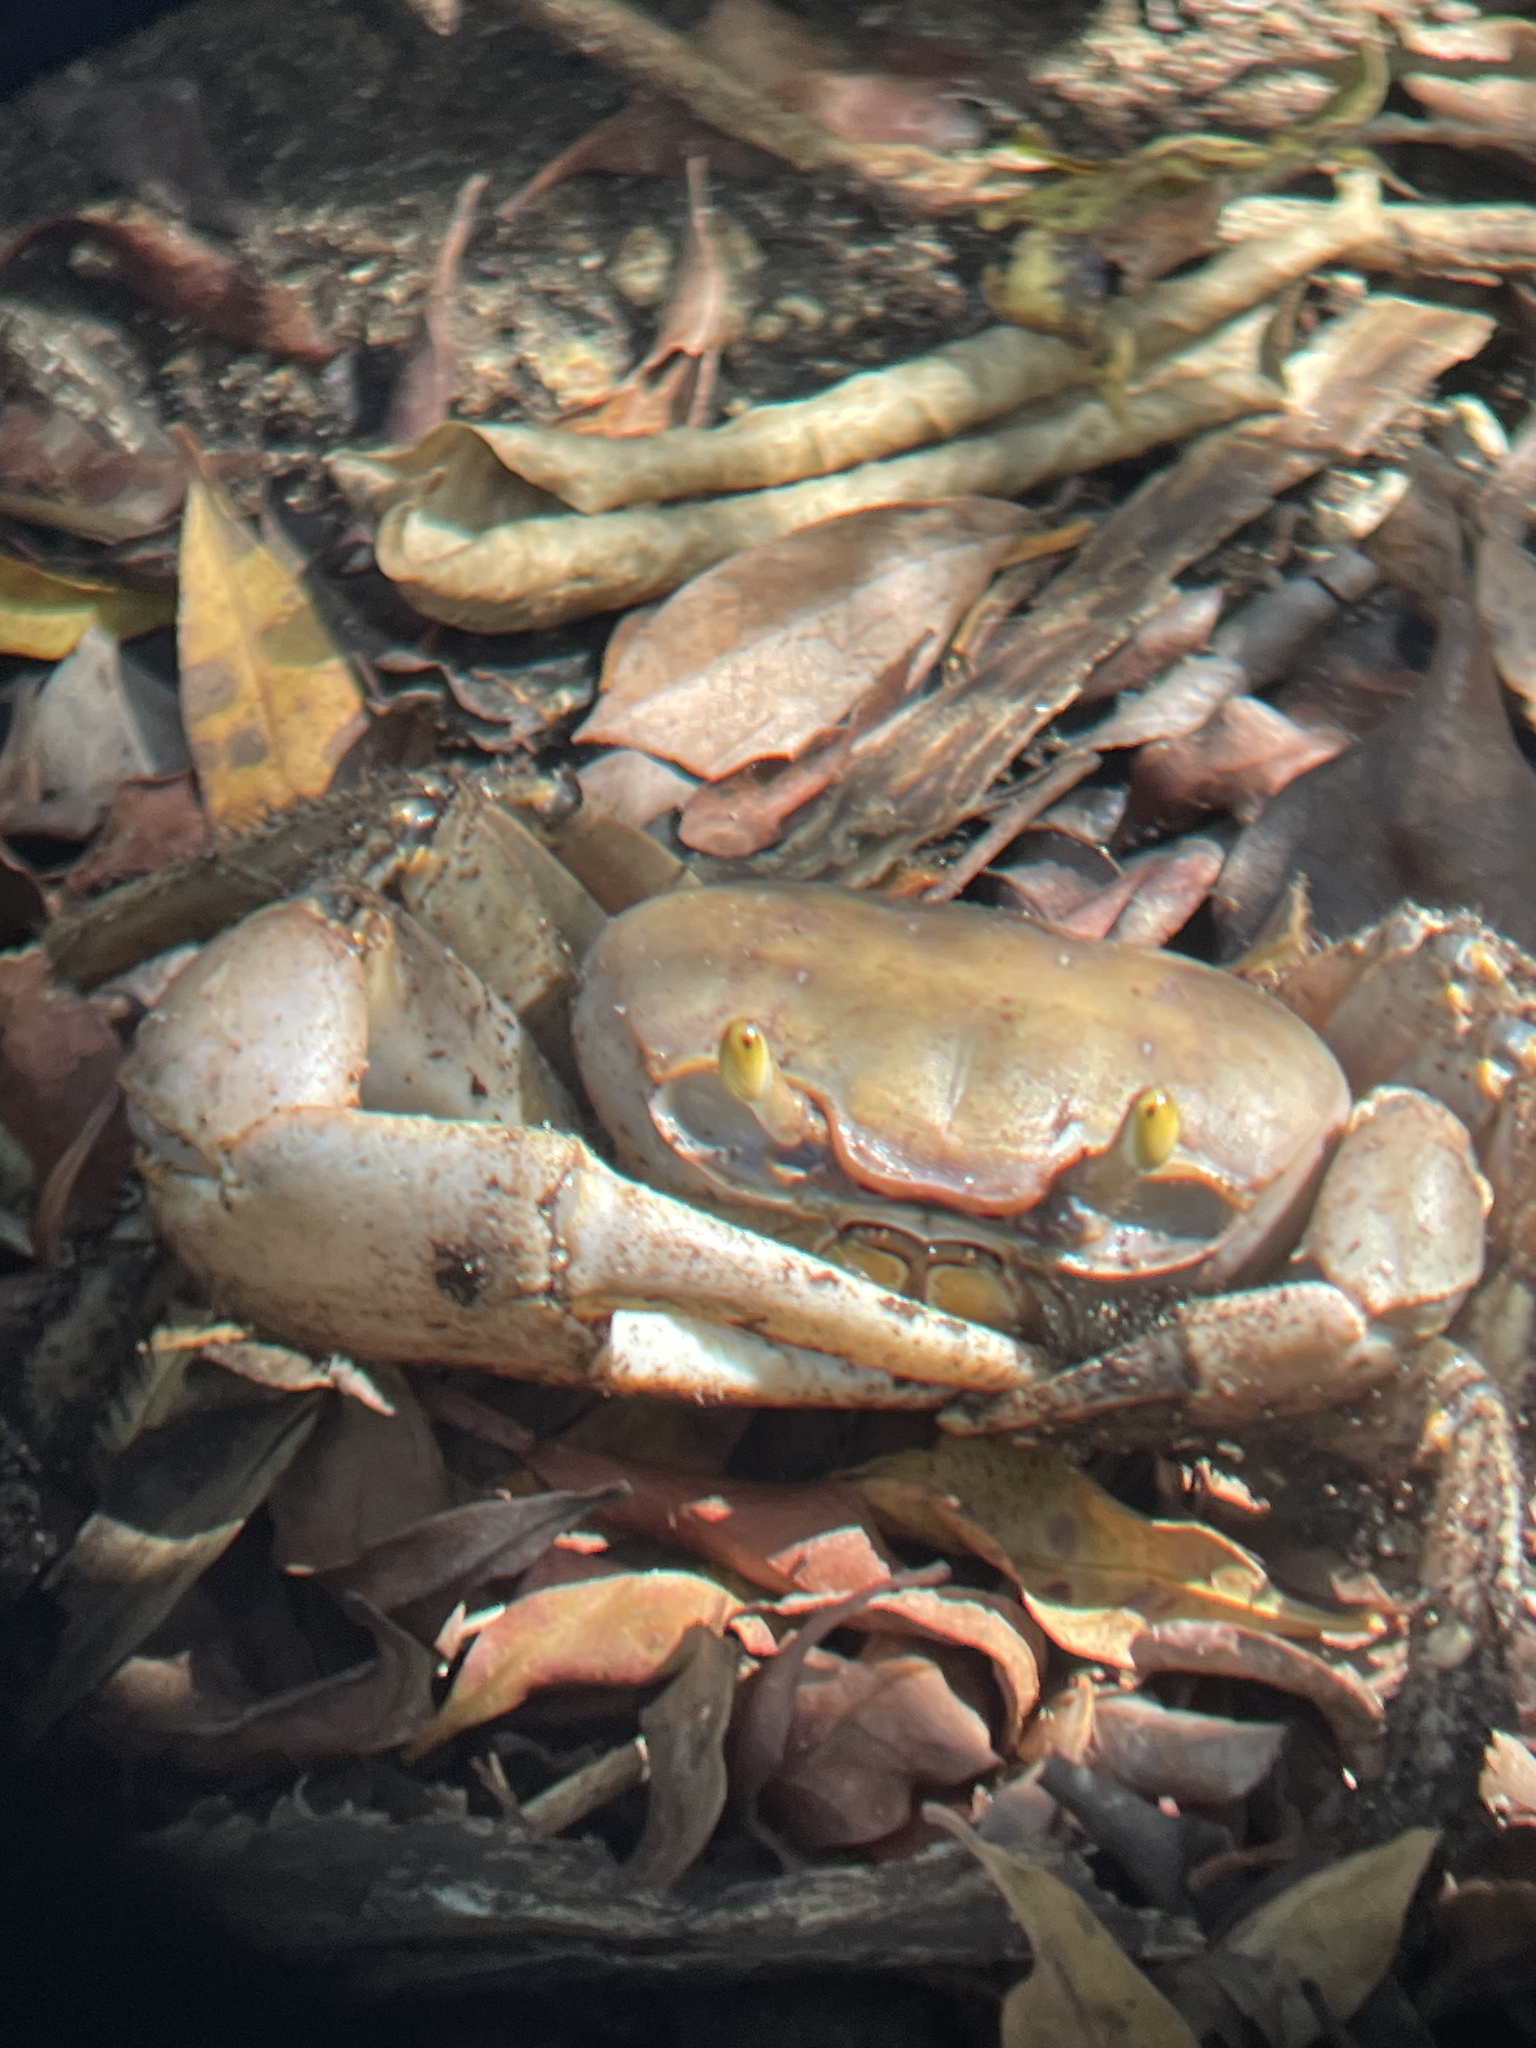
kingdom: Animalia
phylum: Arthropoda
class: Malacostraca
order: Decapoda
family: Gecarcinidae
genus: Cardisoma
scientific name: Cardisoma guanhumi
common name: Great land crab
